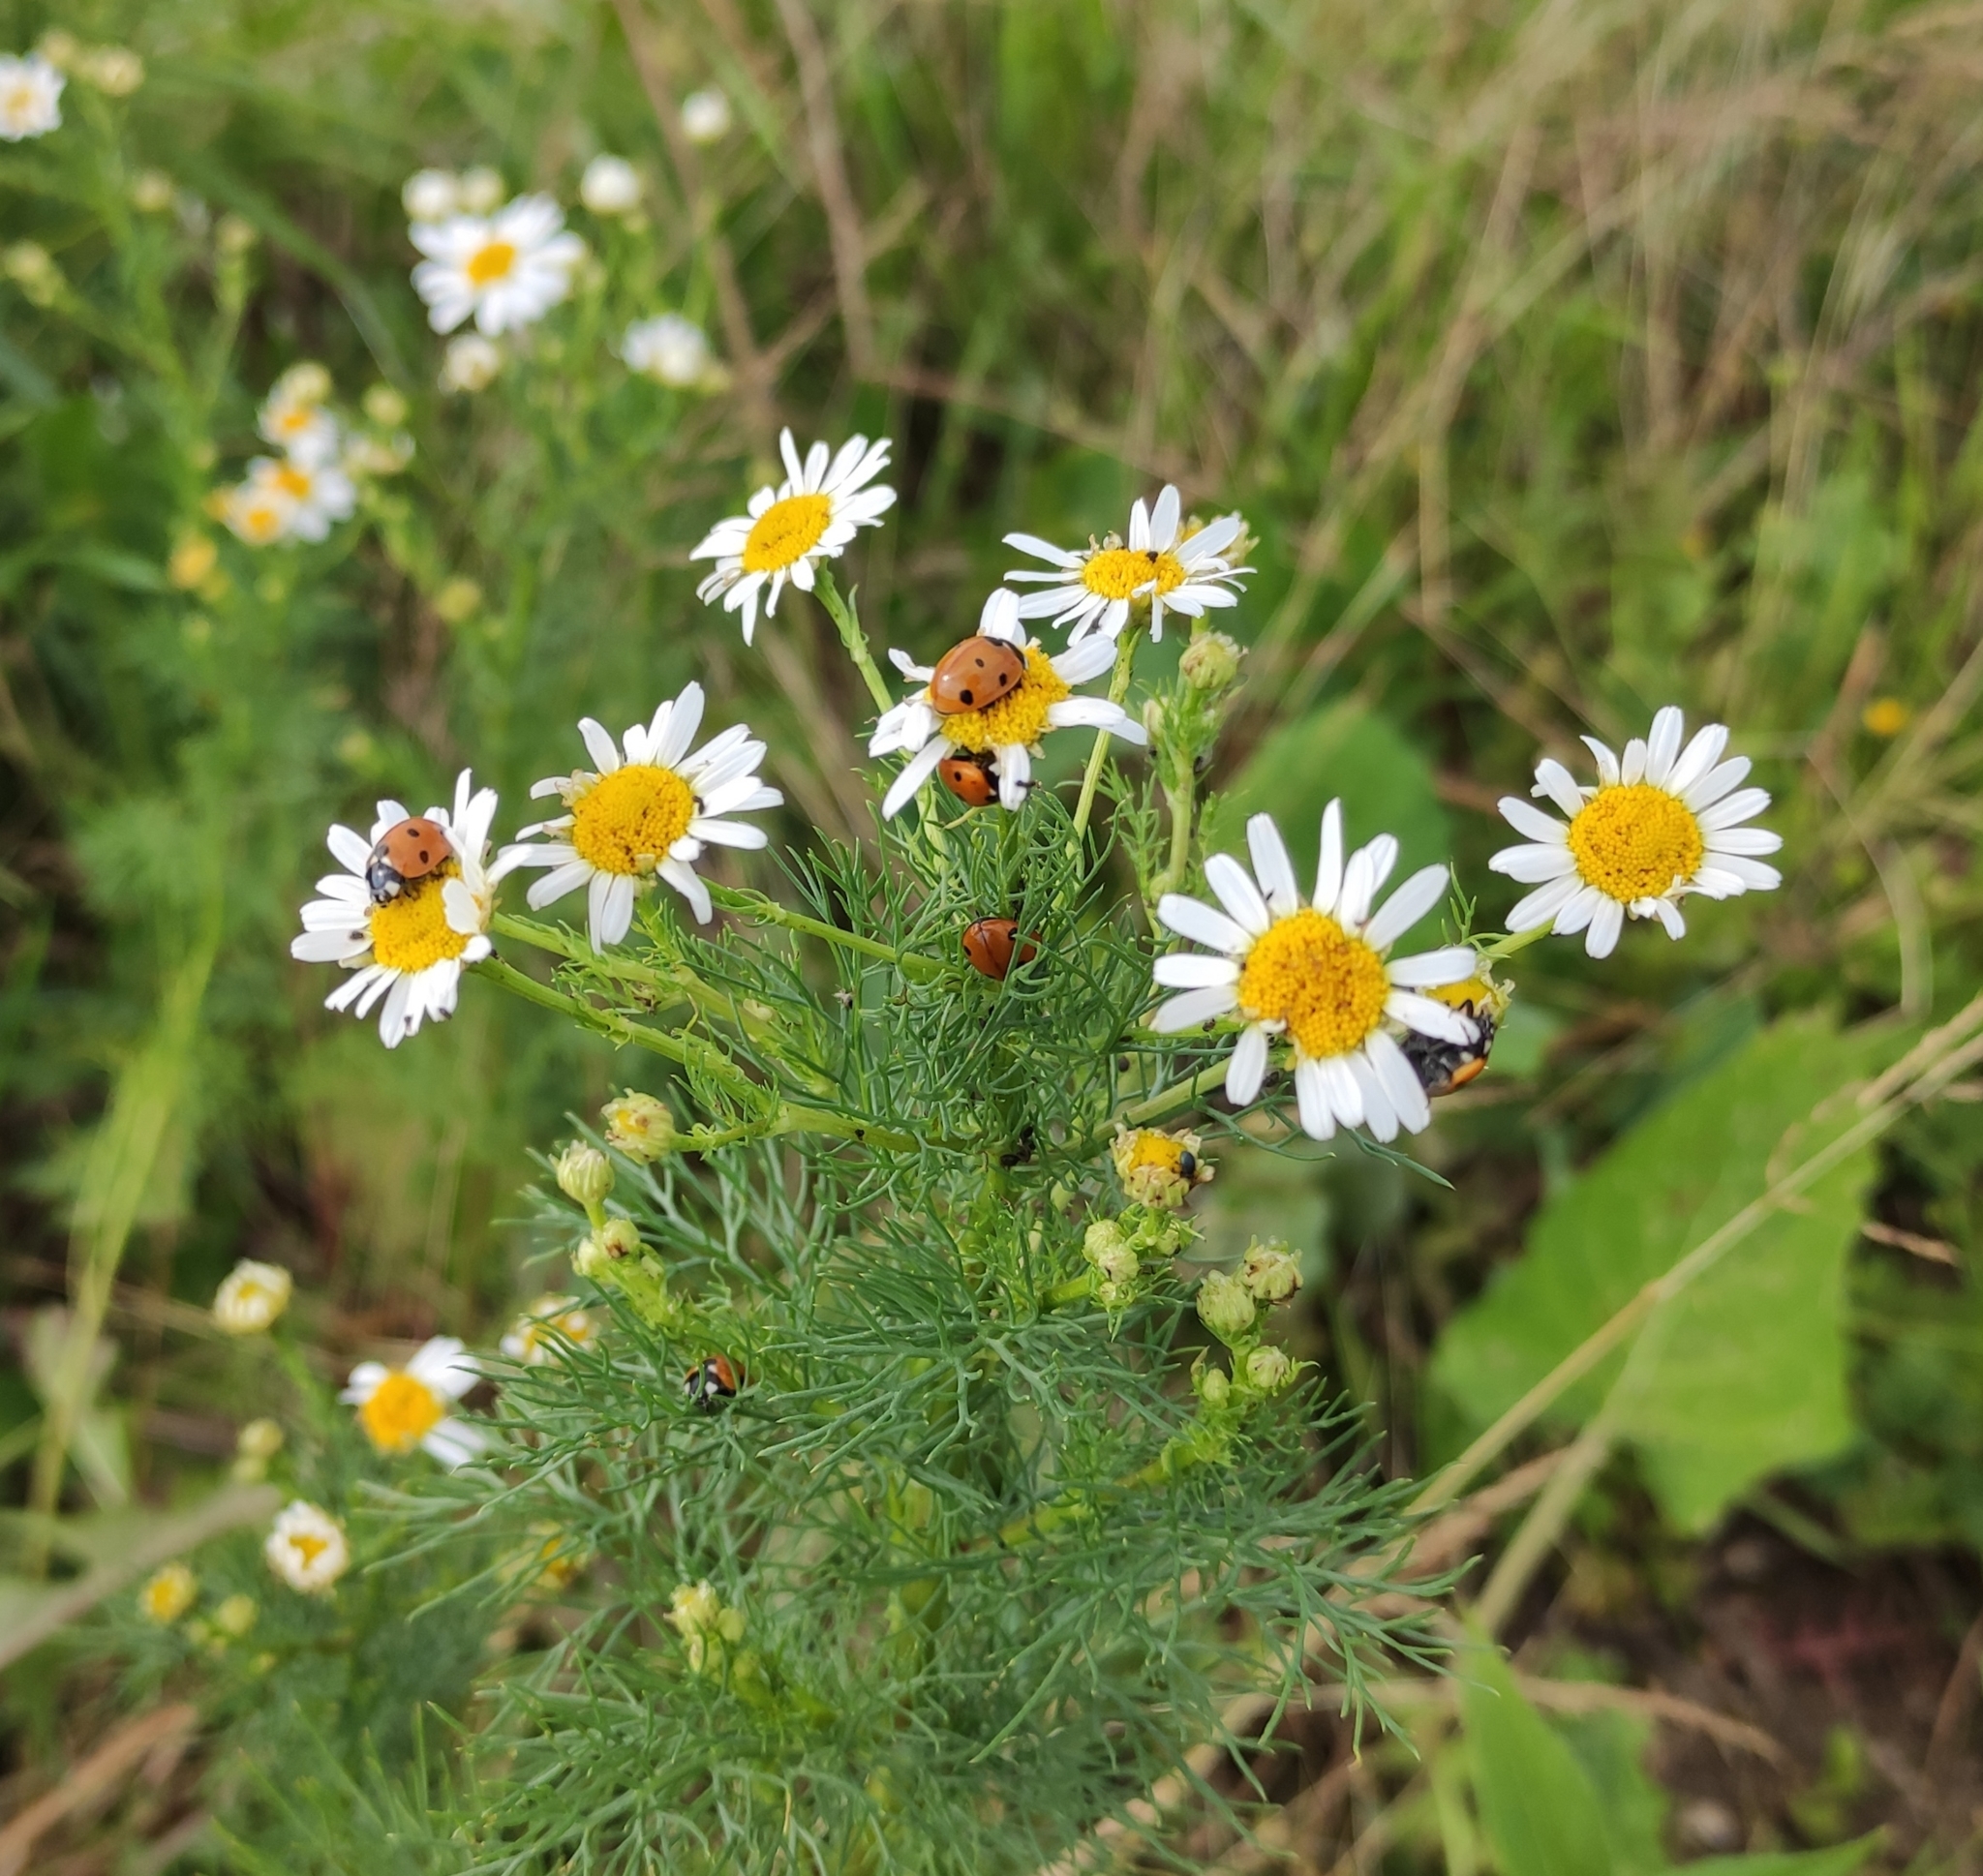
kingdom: Animalia
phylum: Arthropoda
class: Insecta
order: Coleoptera
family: Coccinellidae
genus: Coccinella
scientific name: Coccinella septempunctata
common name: Sevenspotted lady beetle
